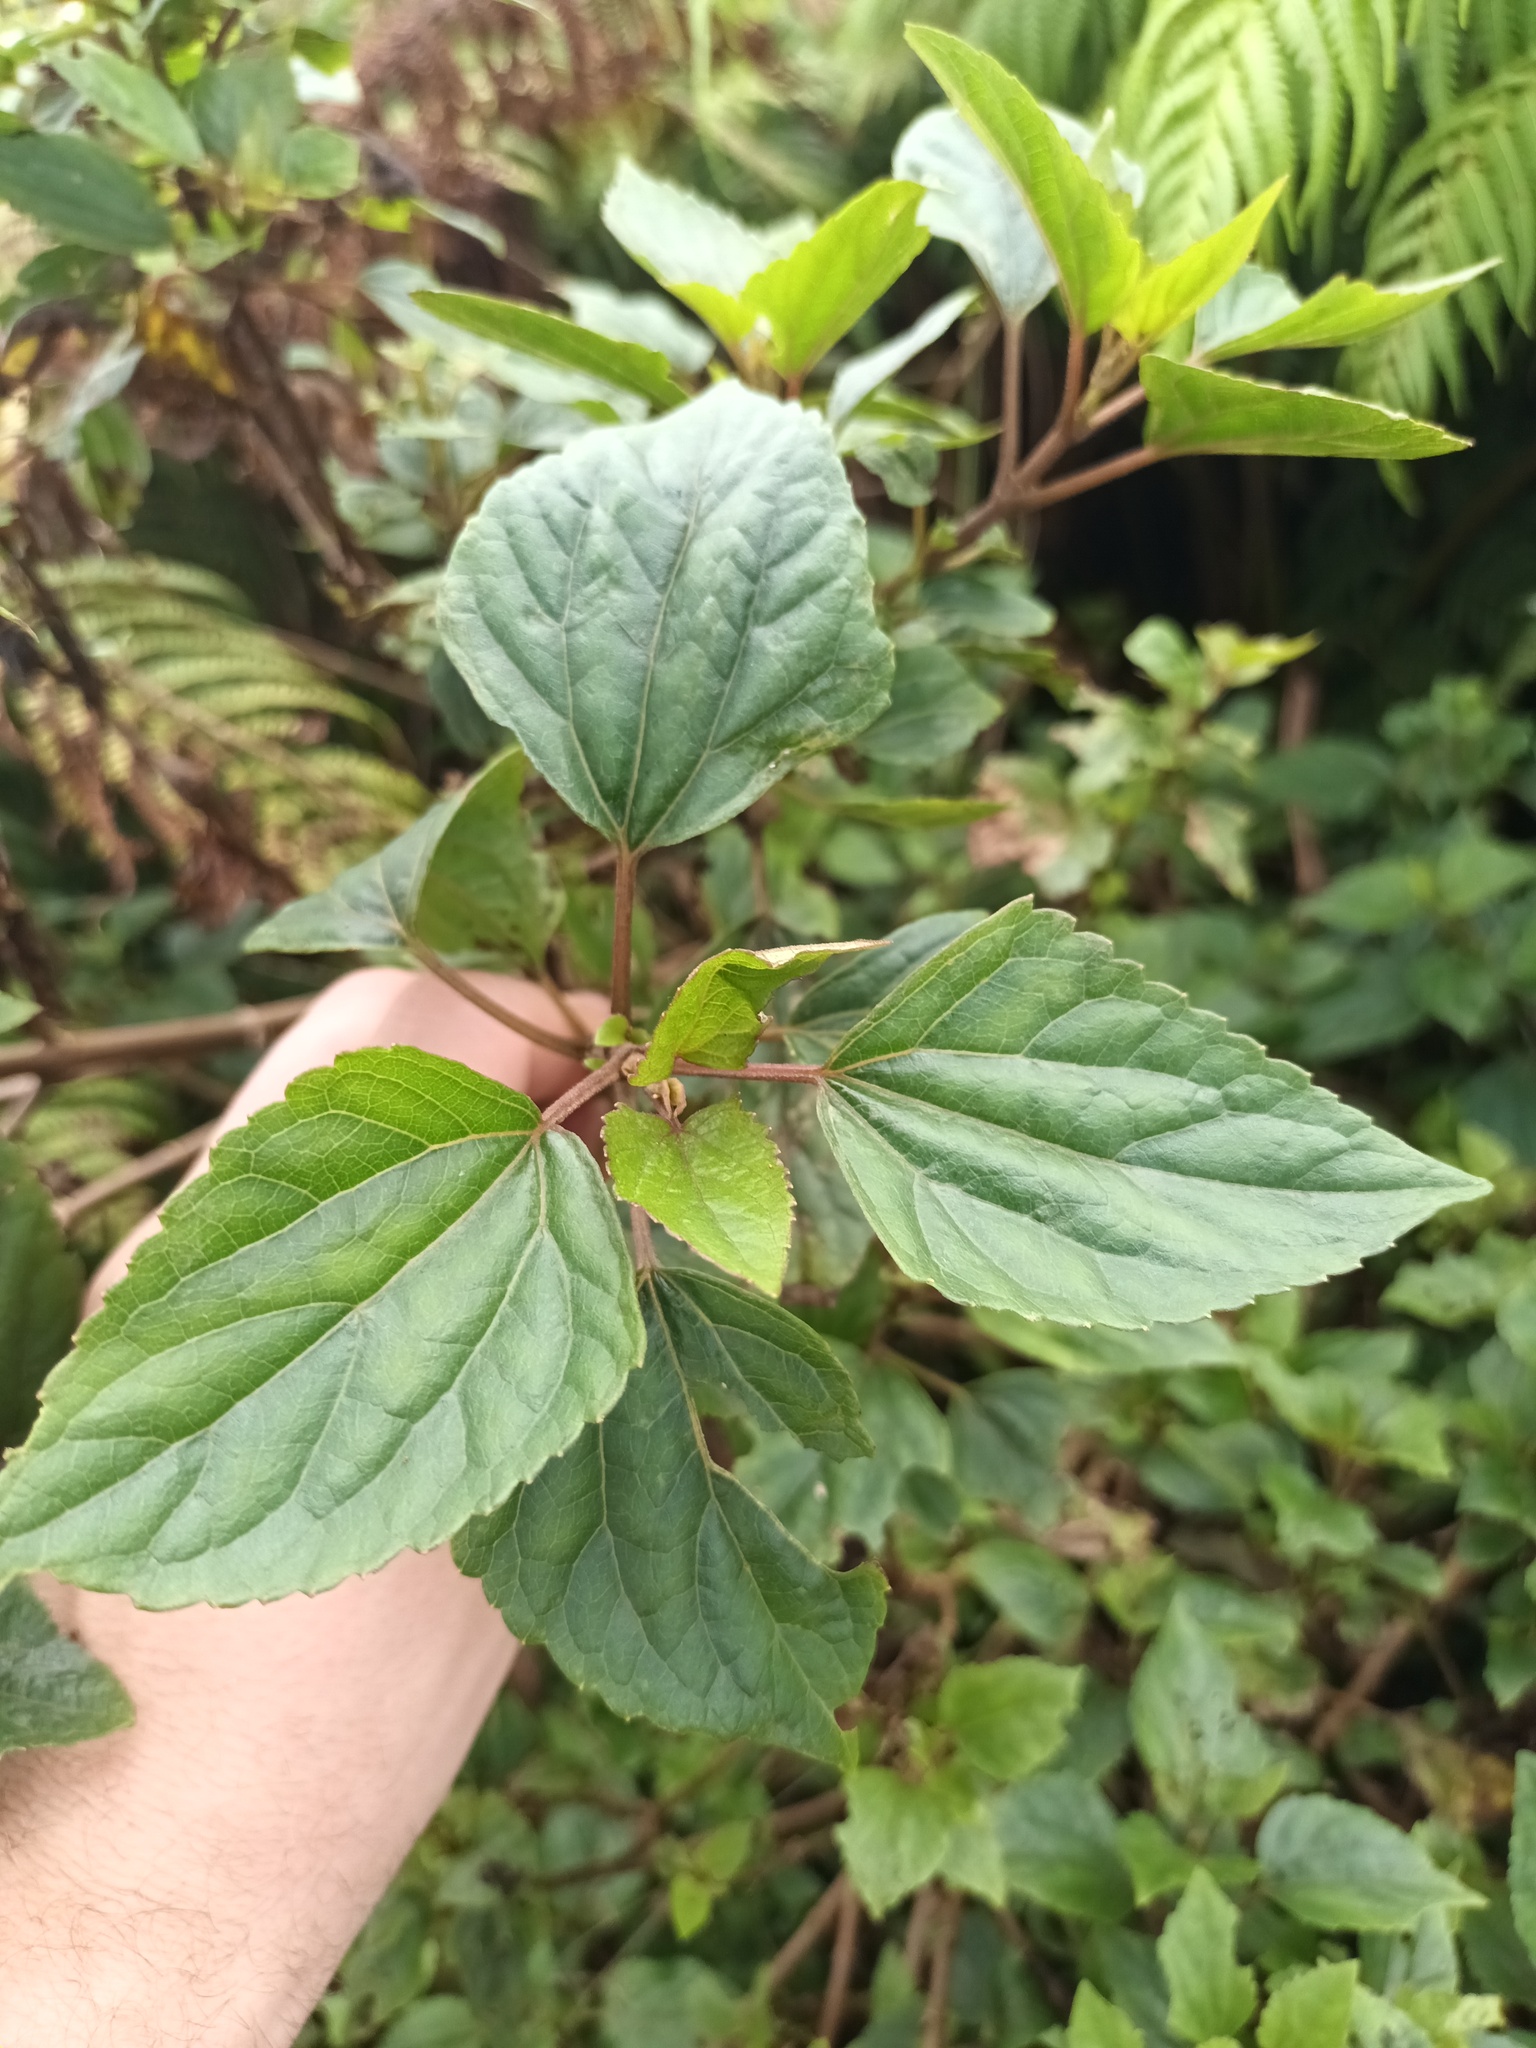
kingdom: Plantae
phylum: Tracheophyta
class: Magnoliopsida
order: Rosales
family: Urticaceae
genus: Pipturus
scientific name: Pipturus albidus
